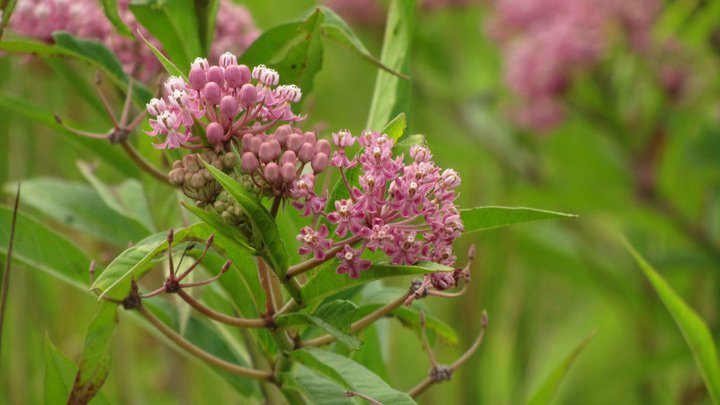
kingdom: Plantae
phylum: Tracheophyta
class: Magnoliopsida
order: Gentianales
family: Apocynaceae
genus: Asclepias
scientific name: Asclepias incarnata
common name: Swamp milkweed
